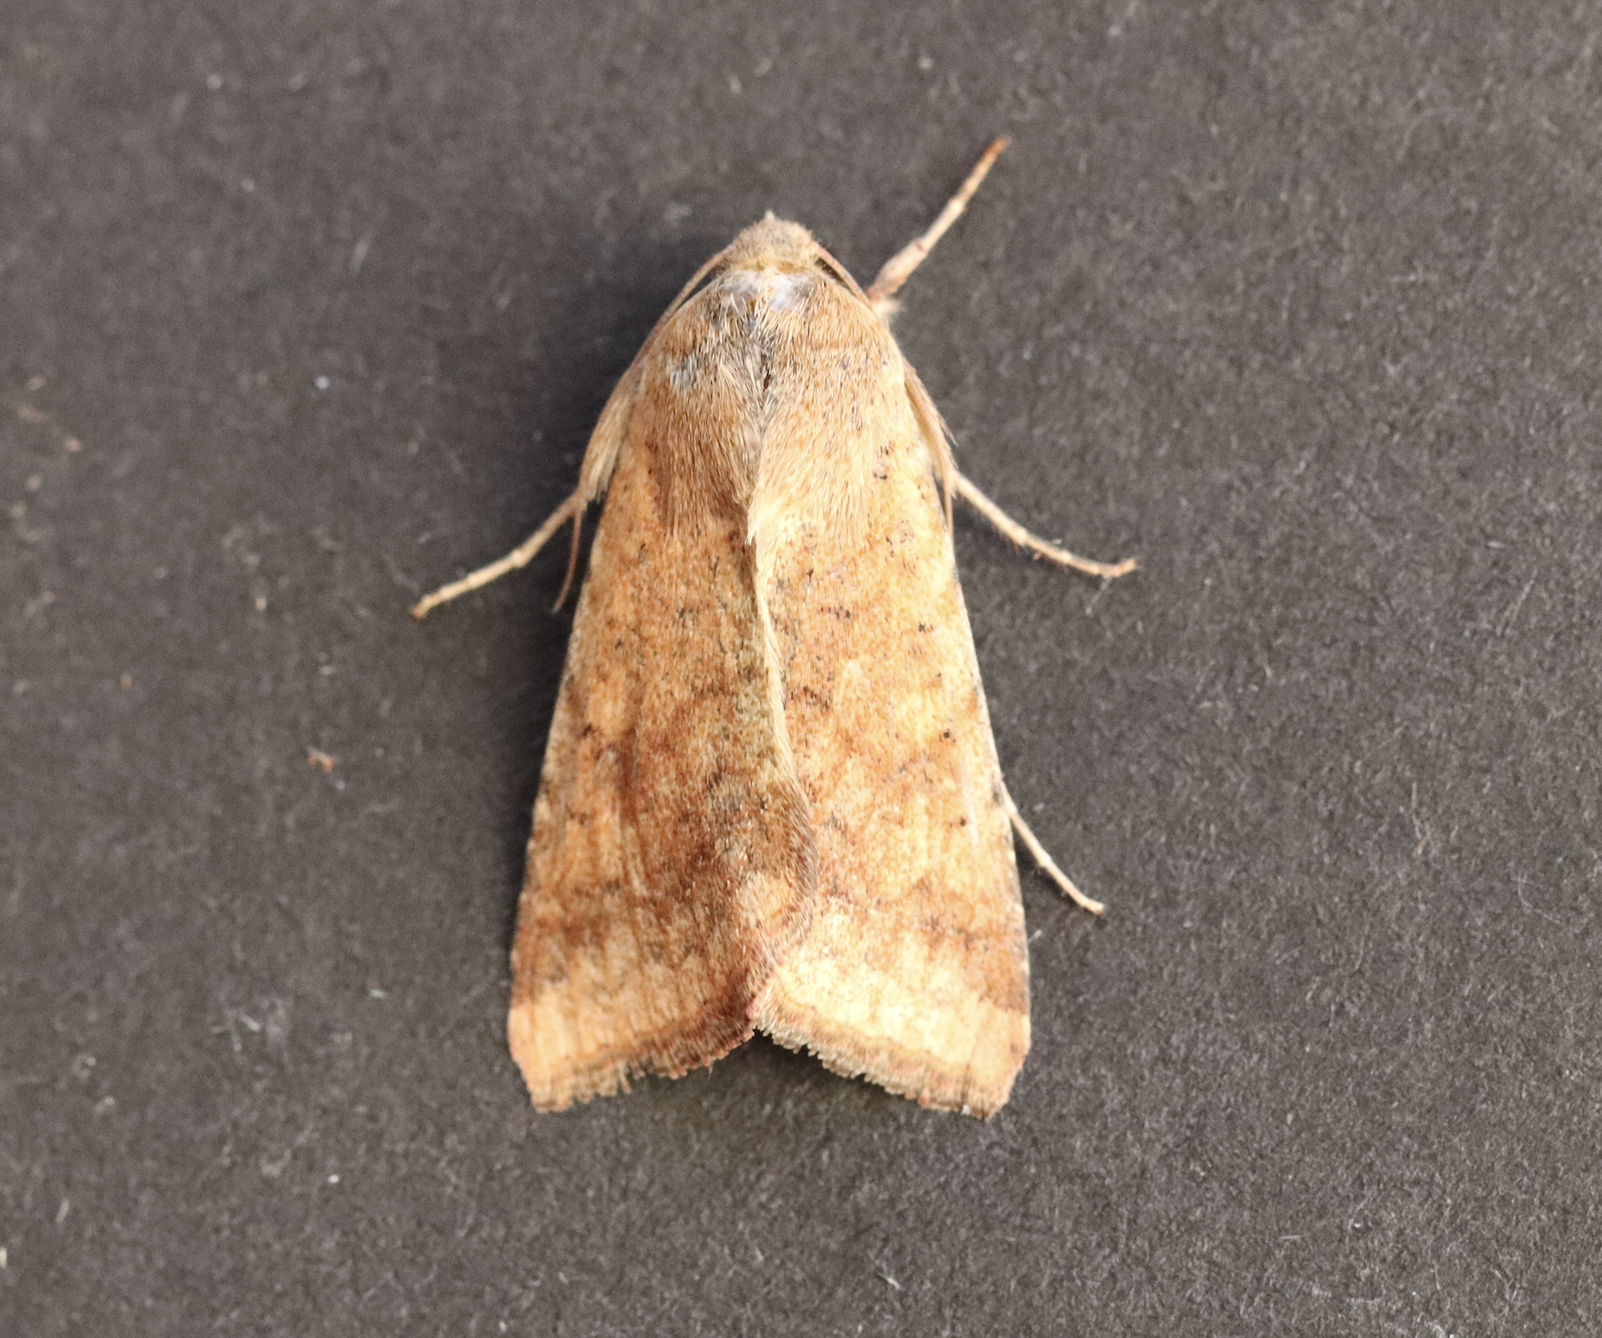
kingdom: Animalia
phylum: Arthropoda
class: Insecta
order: Lepidoptera
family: Noctuidae
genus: Helicoverpa
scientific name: Helicoverpa armigera
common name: Cotton bollworm
